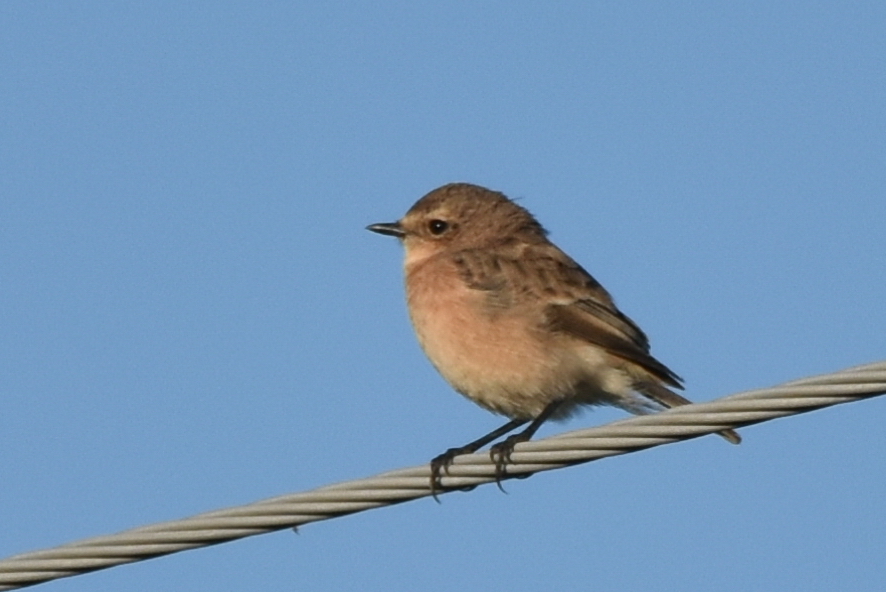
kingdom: Animalia
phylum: Chordata
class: Aves
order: Passeriformes
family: Muscicapidae
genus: Saxicola
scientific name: Saxicola maurus
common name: Siberian stonechat
